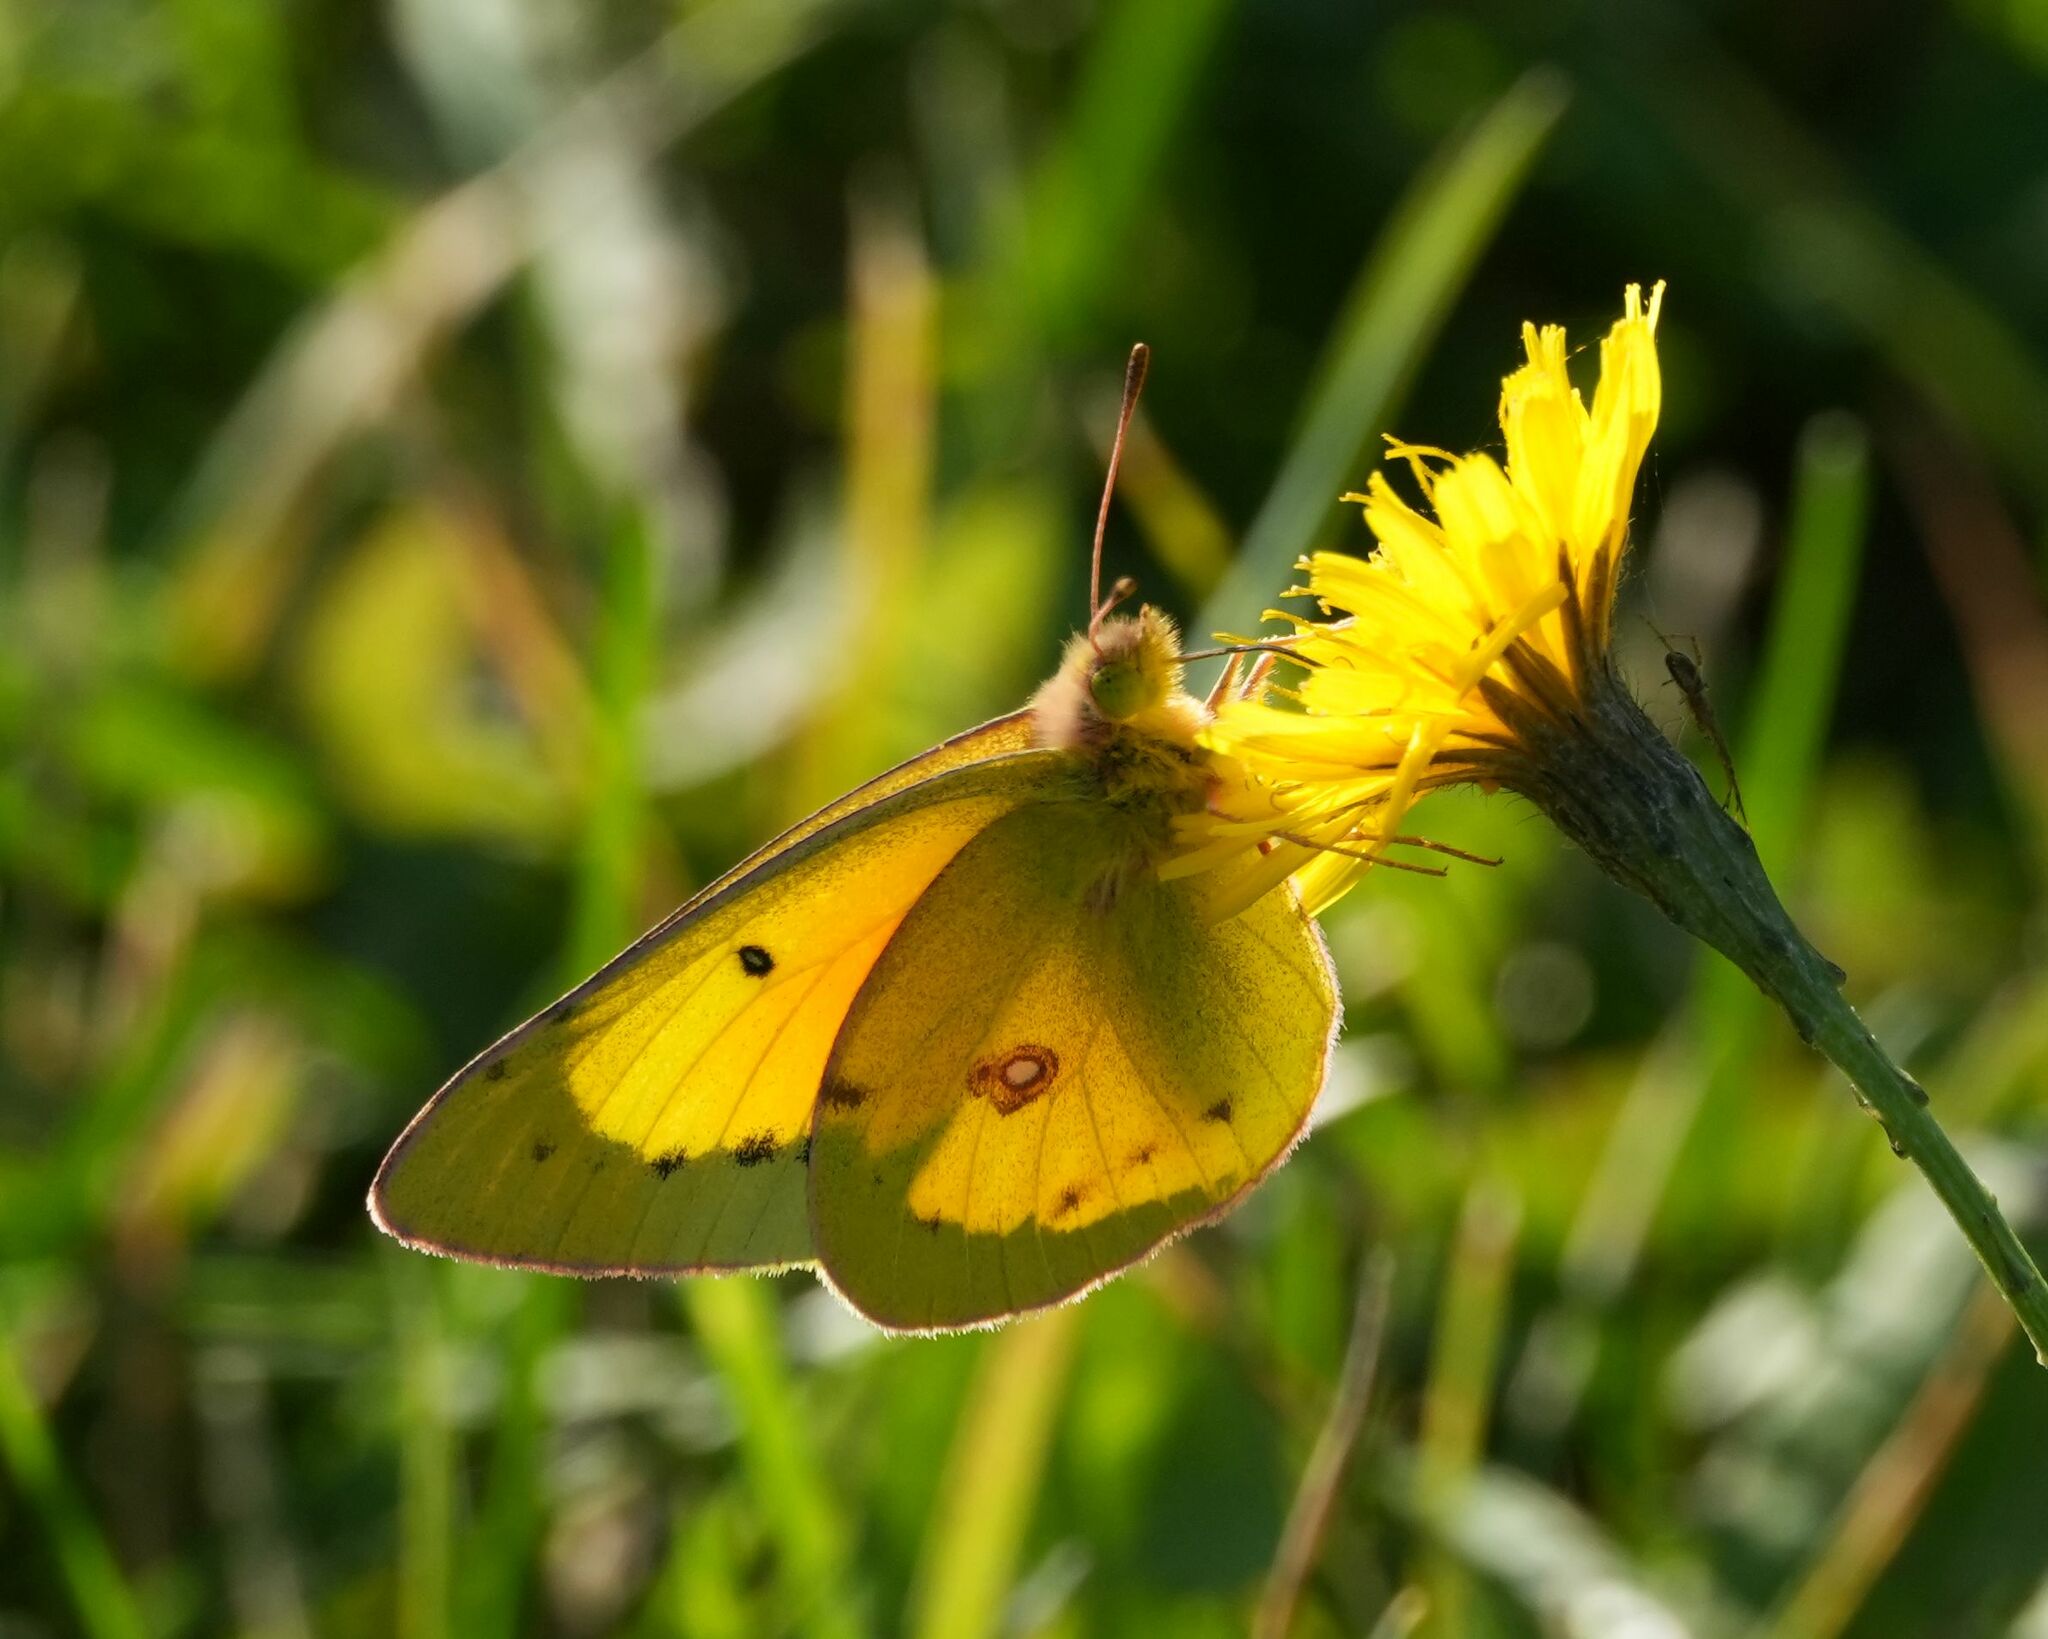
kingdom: Animalia
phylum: Arthropoda
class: Insecta
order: Lepidoptera
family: Pieridae
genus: Colias
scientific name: Colias eurytheme
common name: Alfalfa butterfly
